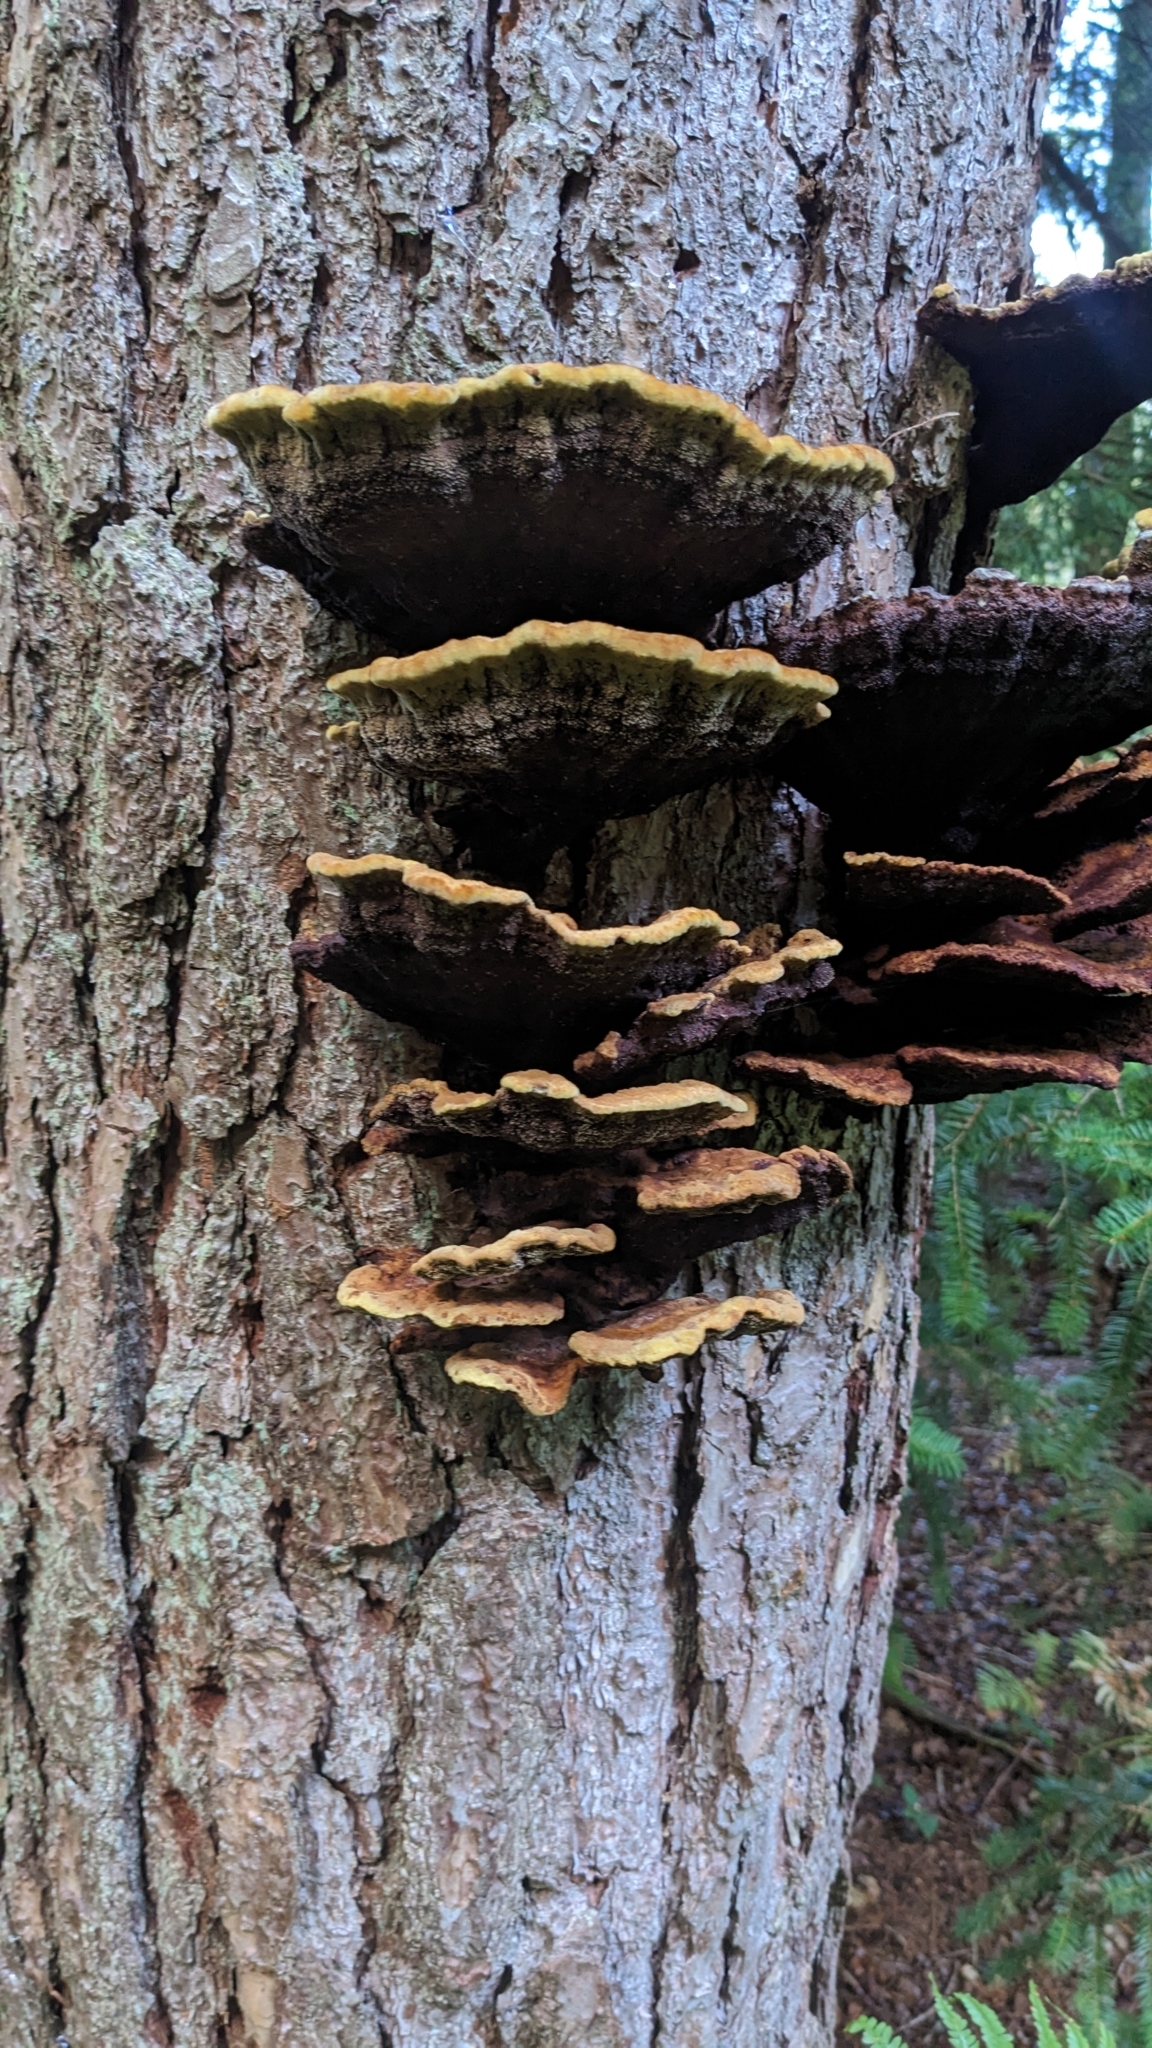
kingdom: Fungi
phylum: Basidiomycota
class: Agaricomycetes
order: Polyporales
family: Laetiporaceae
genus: Phaeolus
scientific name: Phaeolus schweinitzii
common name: Dyer's mazegill
